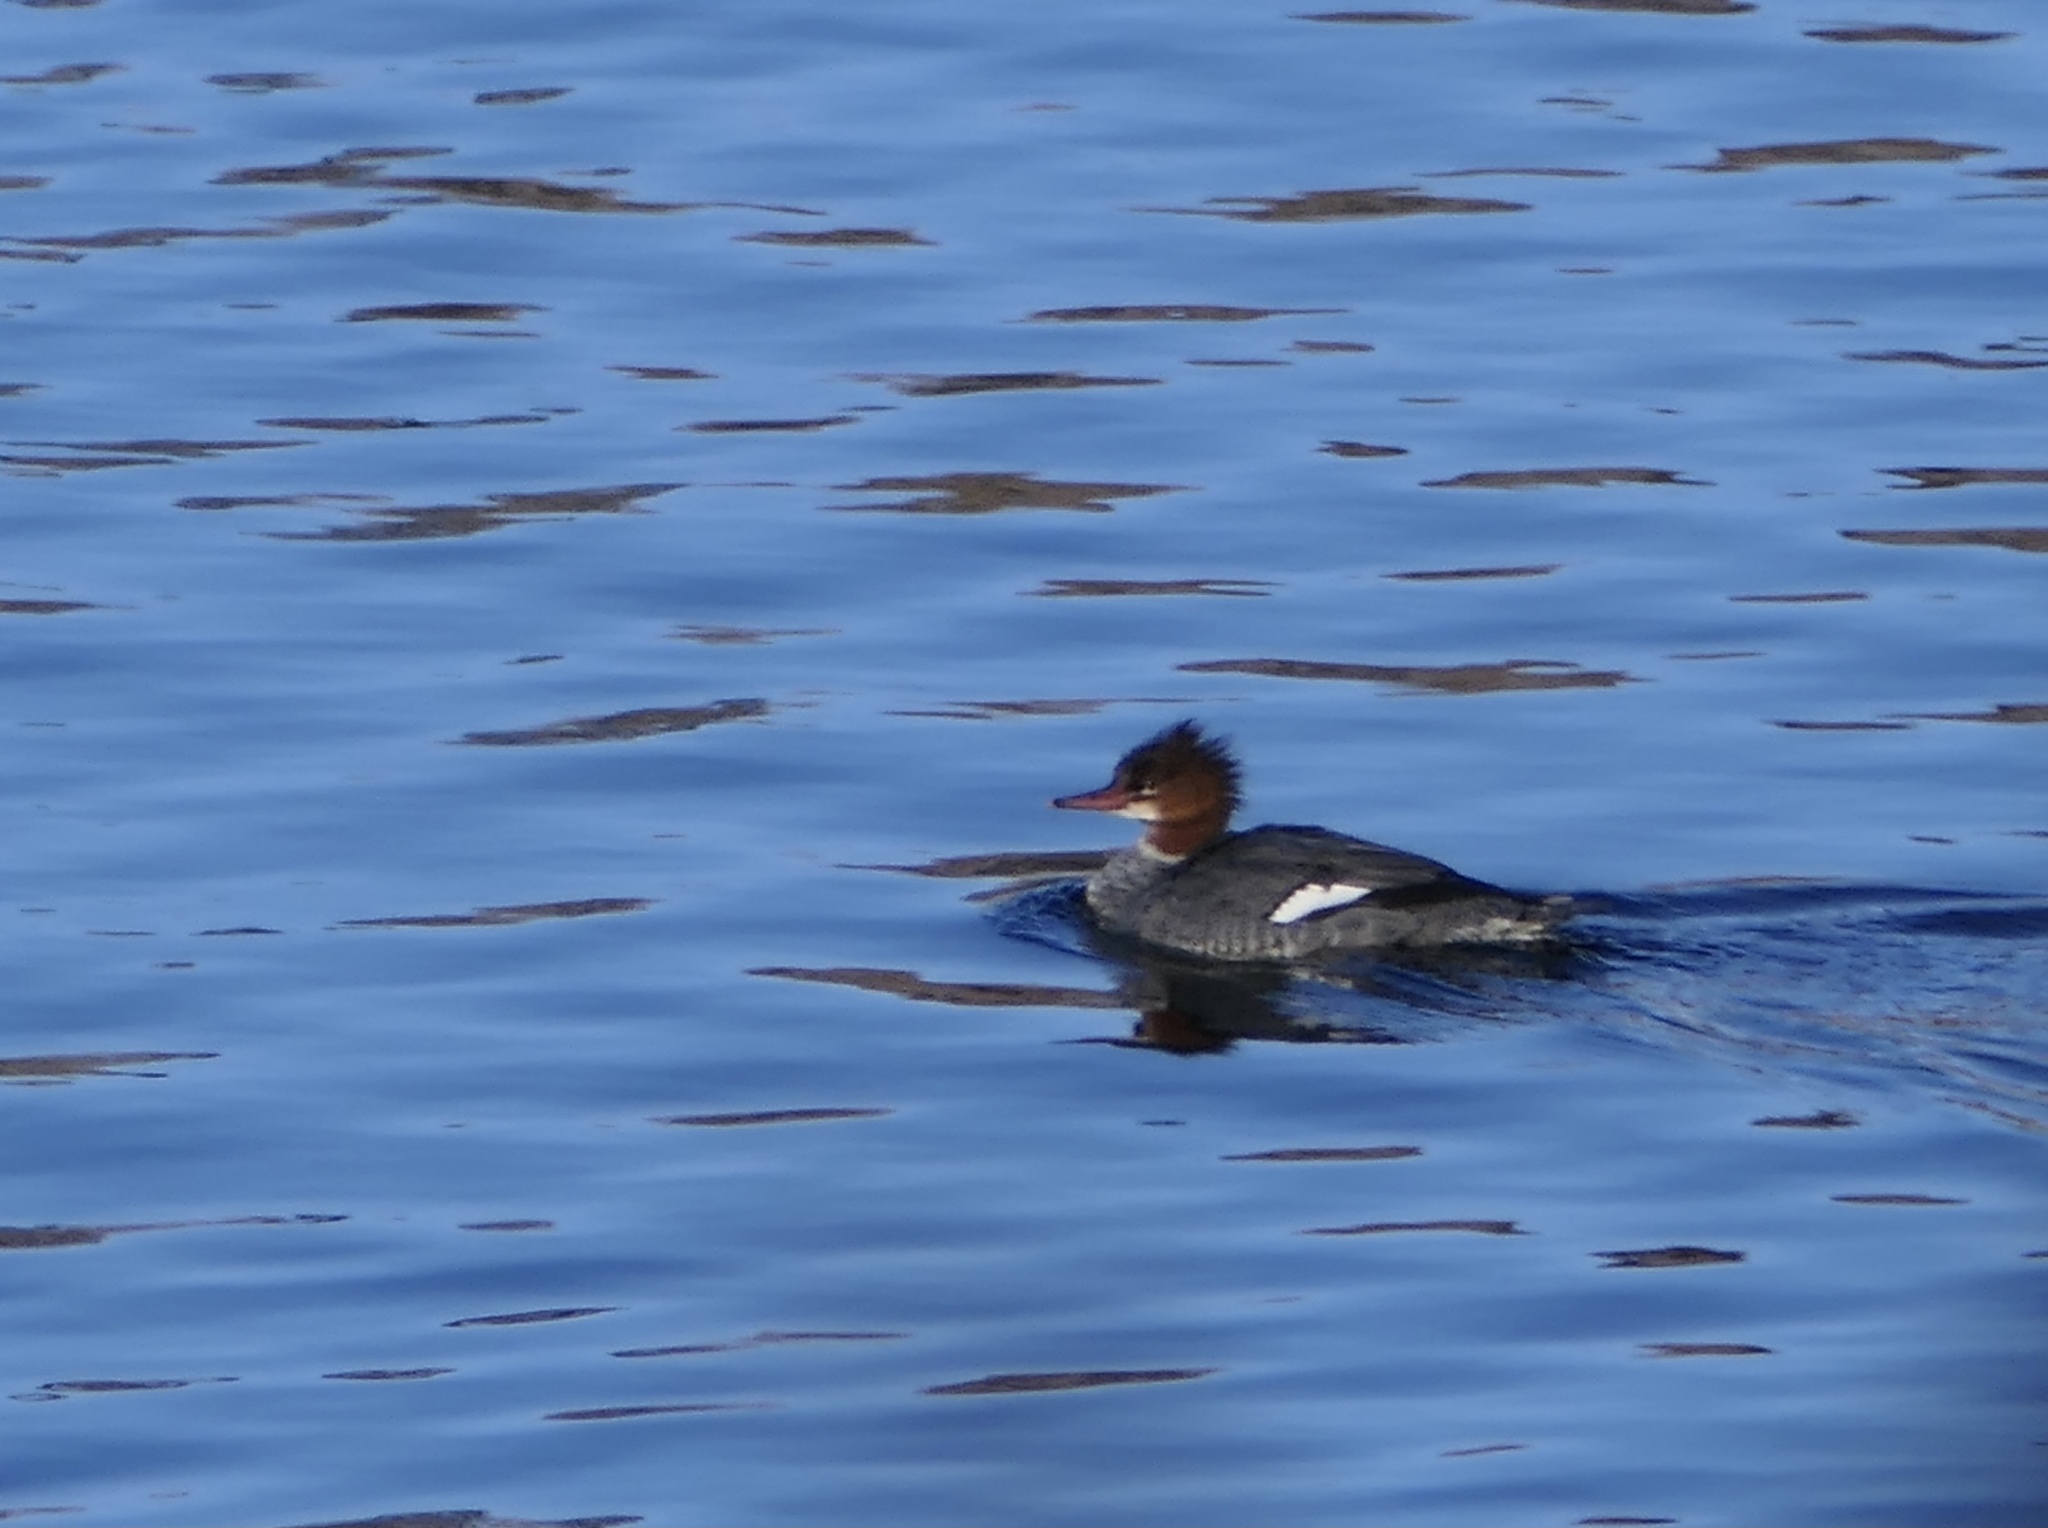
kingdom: Animalia
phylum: Chordata
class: Aves
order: Anseriformes
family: Anatidae
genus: Mergus
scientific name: Mergus merganser
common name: Common merganser
